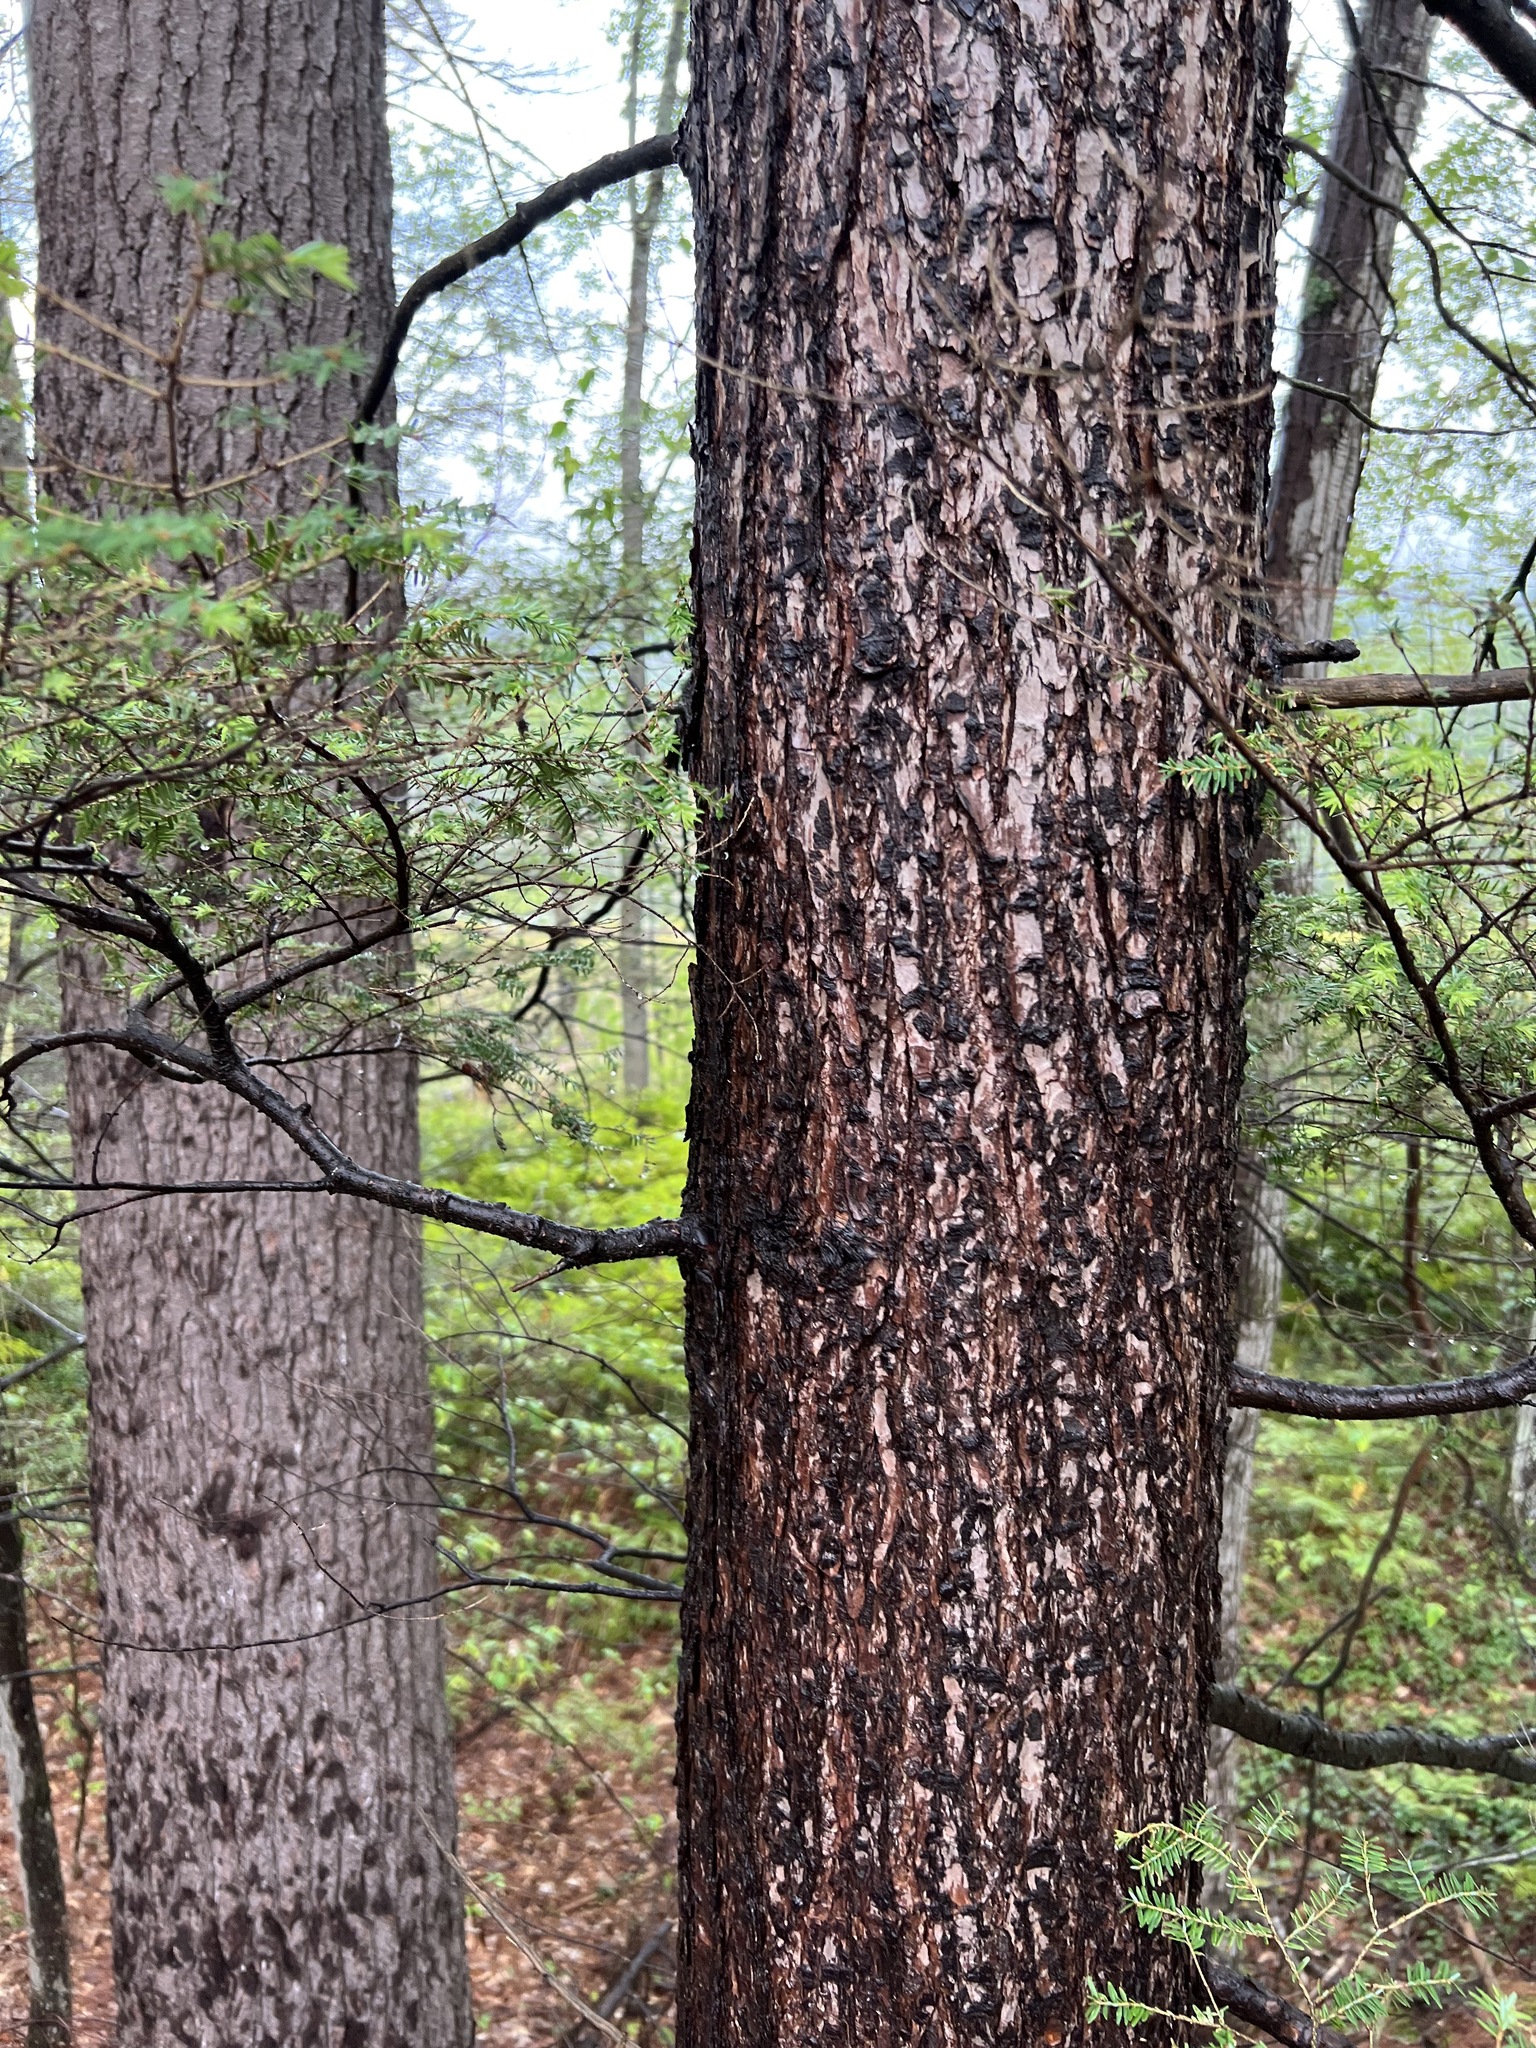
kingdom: Plantae
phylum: Tracheophyta
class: Pinopsida
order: Pinales
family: Pinaceae
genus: Tsuga
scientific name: Tsuga canadensis
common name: Eastern hemlock
